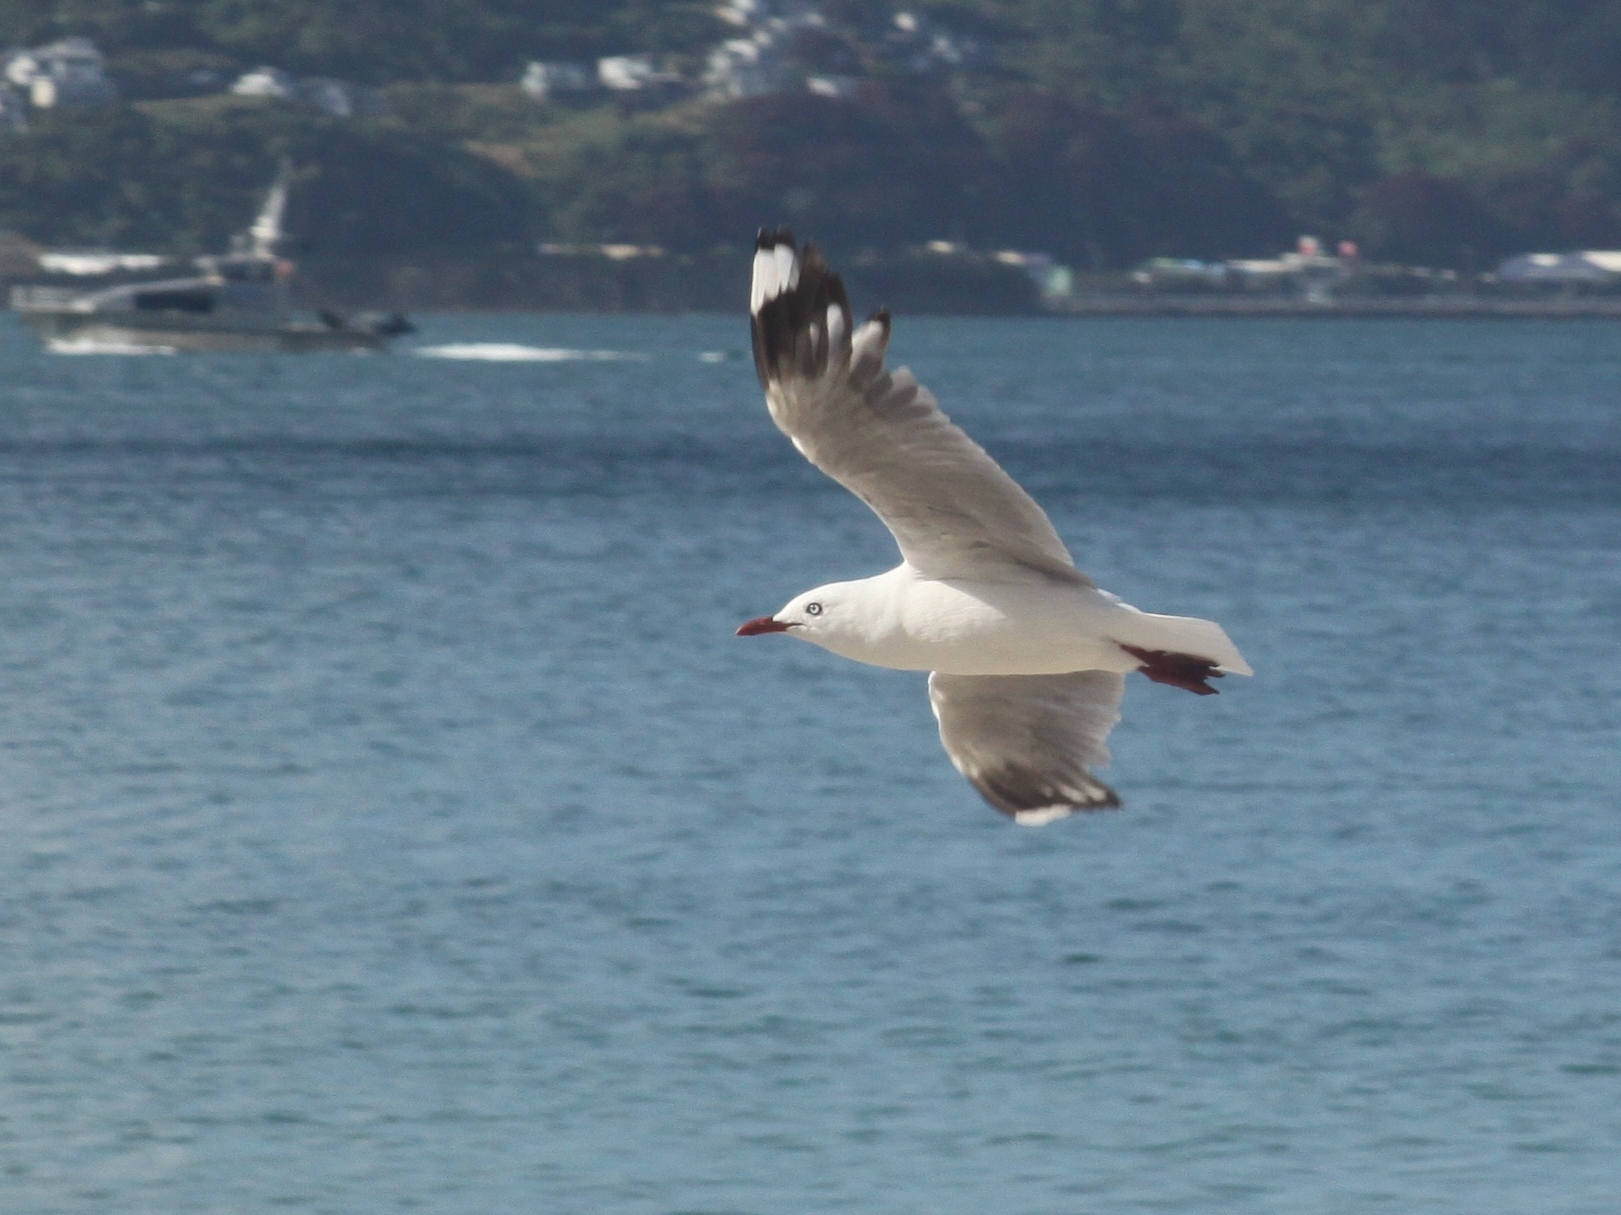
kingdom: Animalia
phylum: Chordata
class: Aves
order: Charadriiformes
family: Laridae
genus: Chroicocephalus
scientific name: Chroicocephalus novaehollandiae
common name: Silver gull
